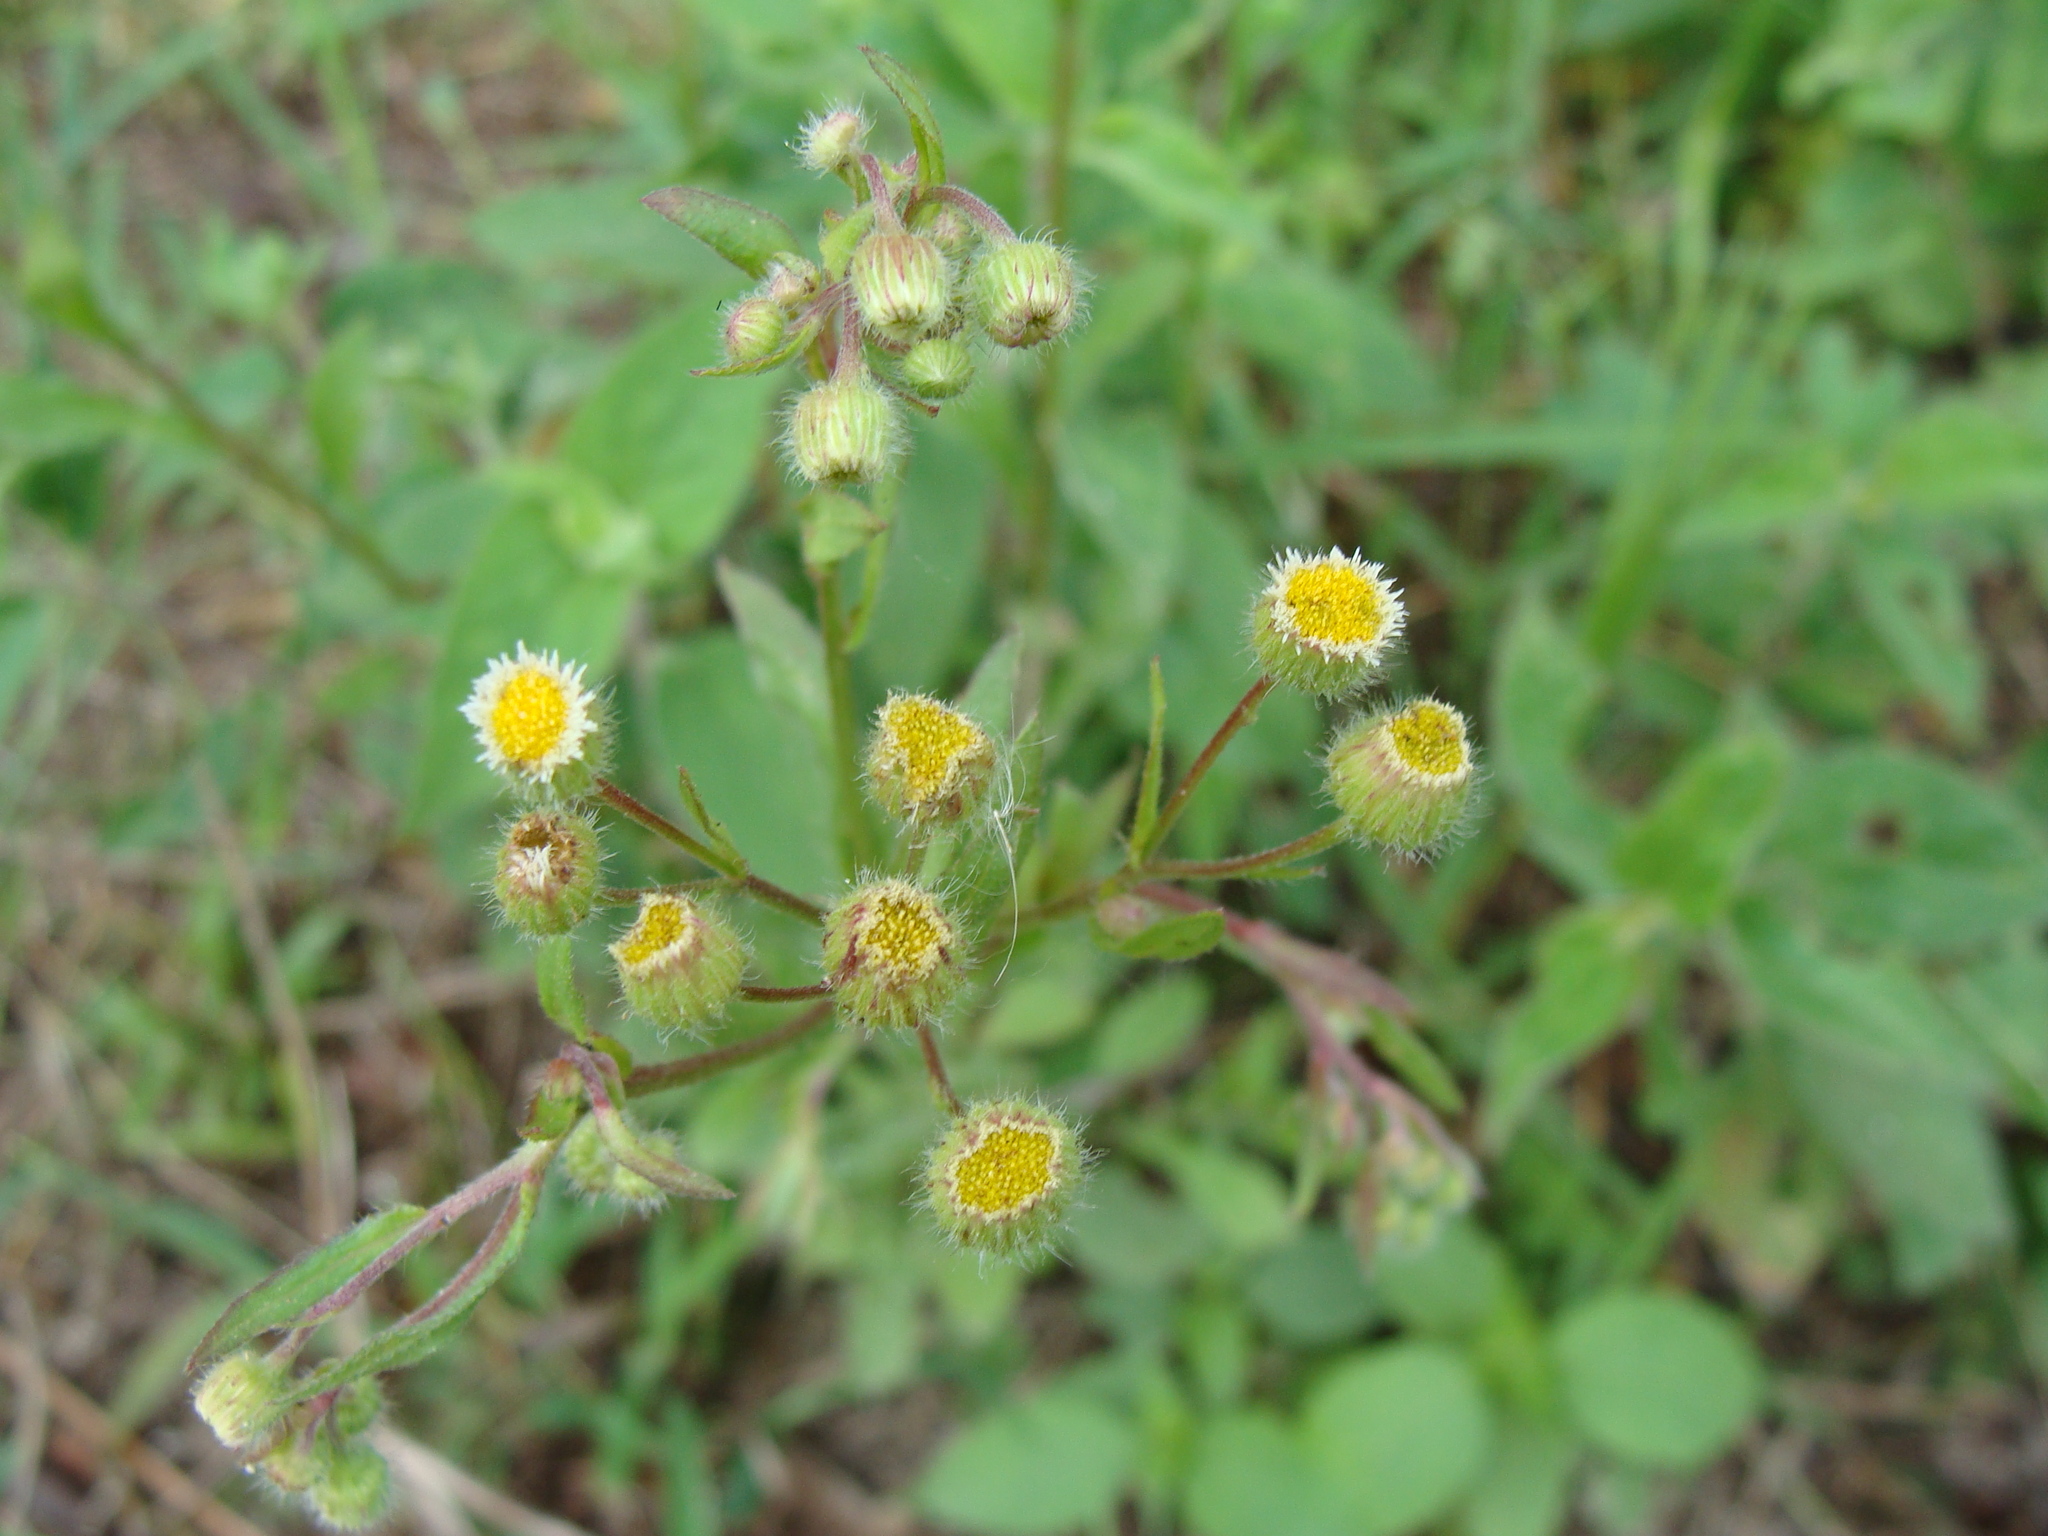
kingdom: Plantae
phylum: Tracheophyta
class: Magnoliopsida
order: Asterales
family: Asteraceae
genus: Erigeron
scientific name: Erigeron laevigatus
